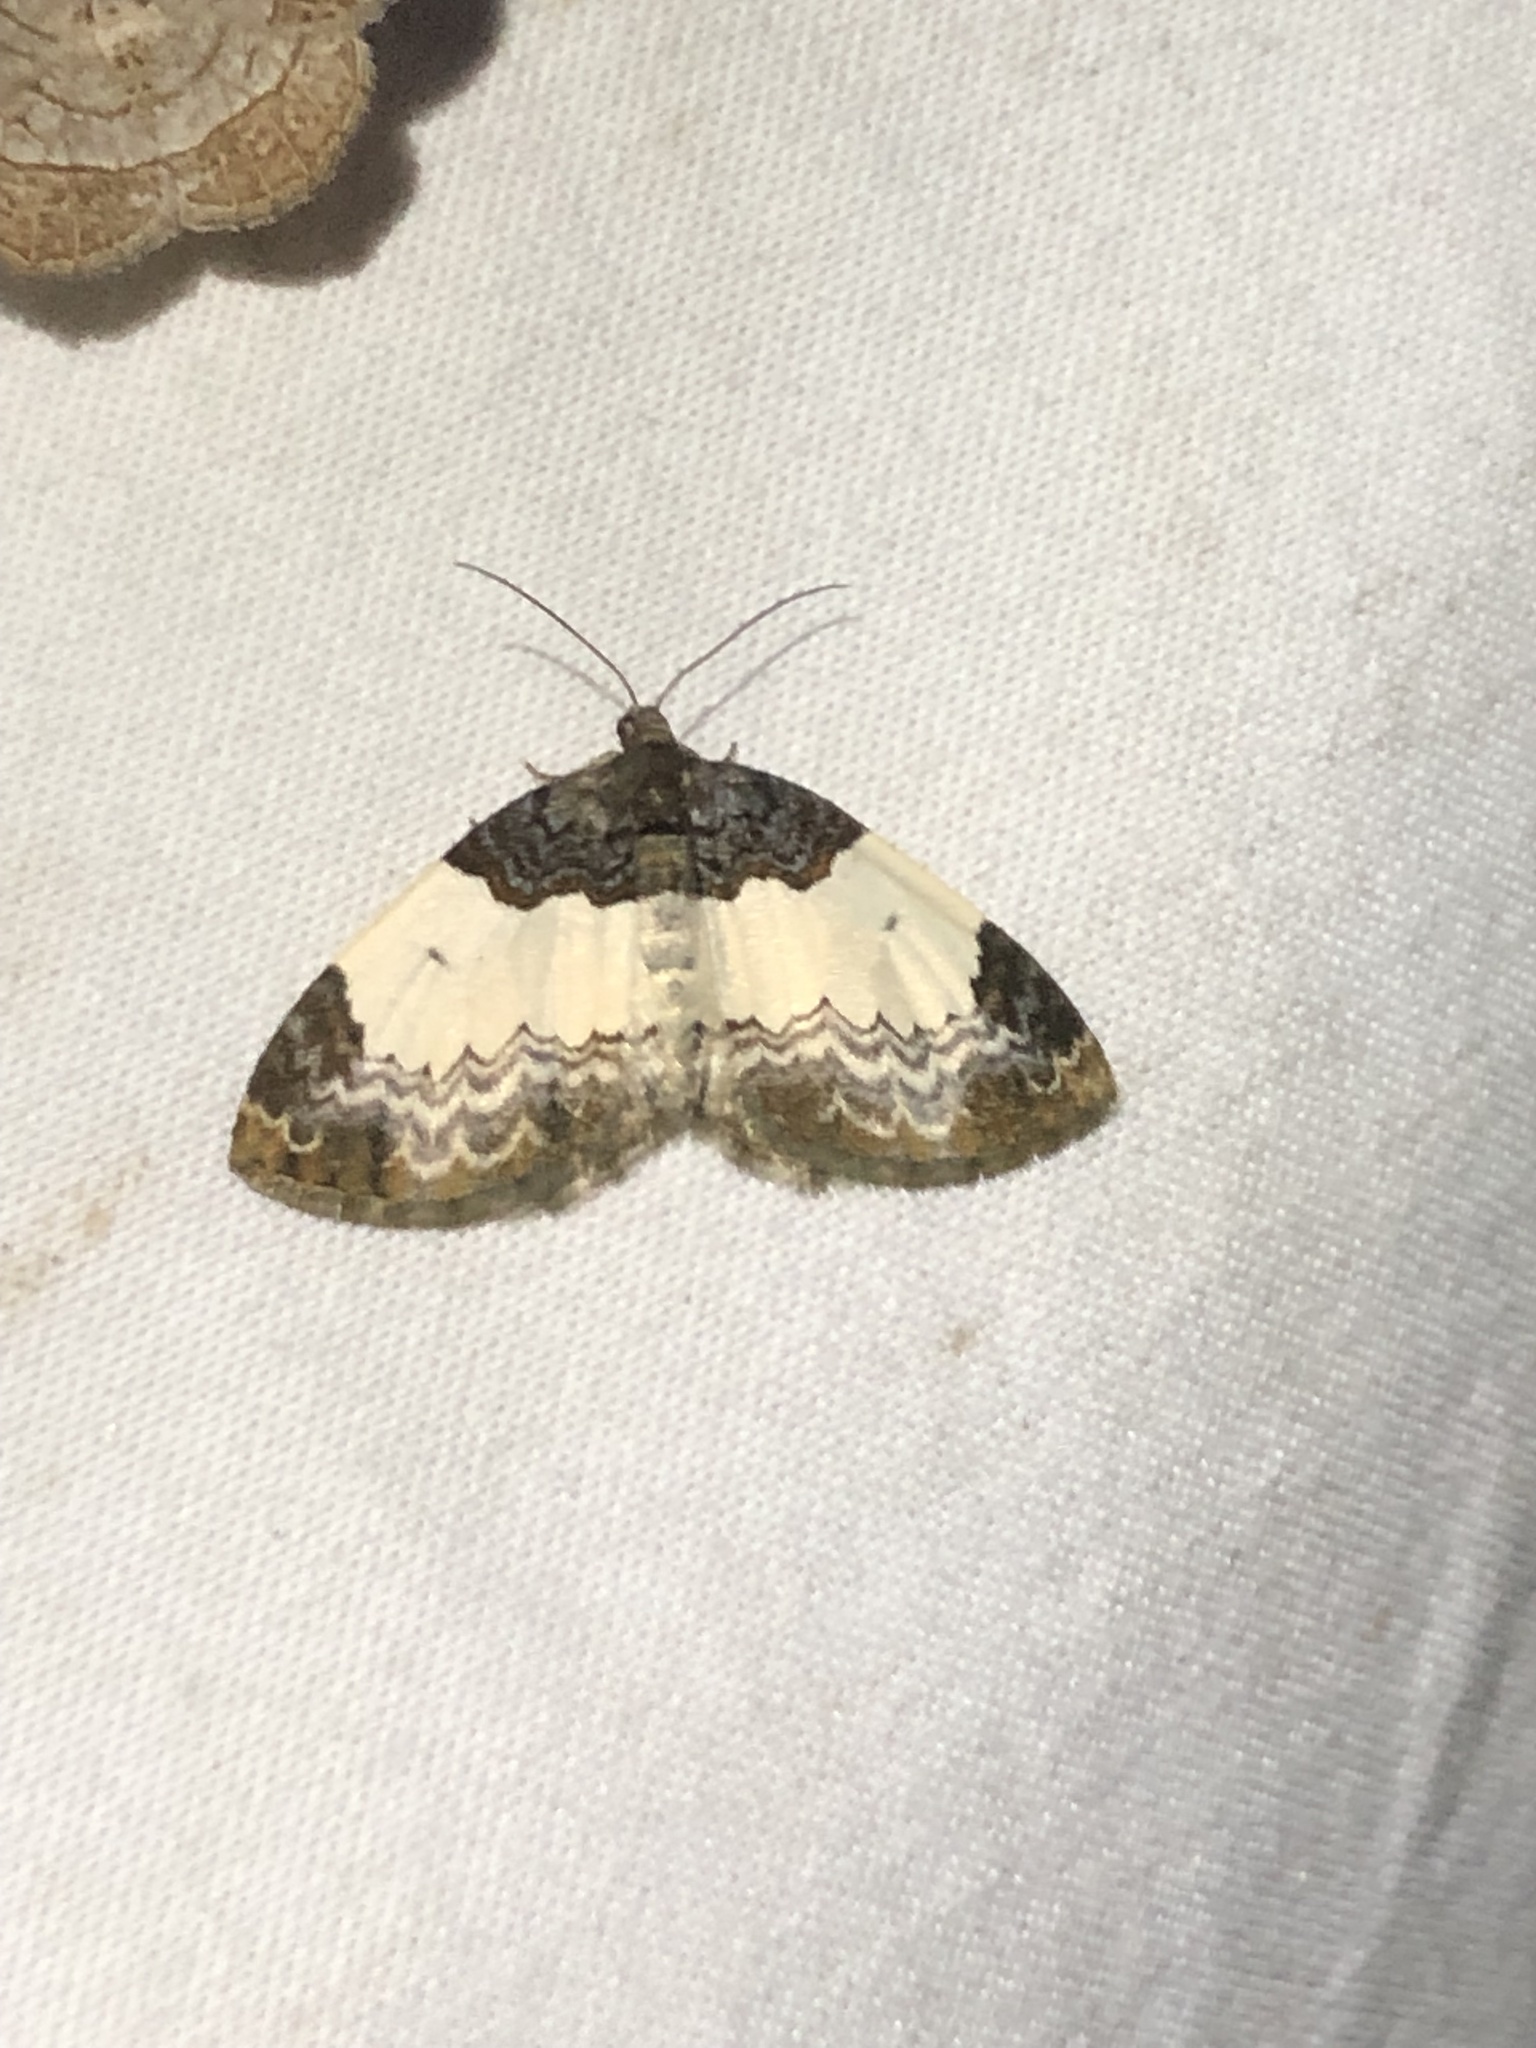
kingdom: Animalia
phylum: Arthropoda
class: Insecta
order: Lepidoptera
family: Geometridae
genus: Mesoleuca
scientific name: Mesoleuca gratulata
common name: Half-white carpet moth
